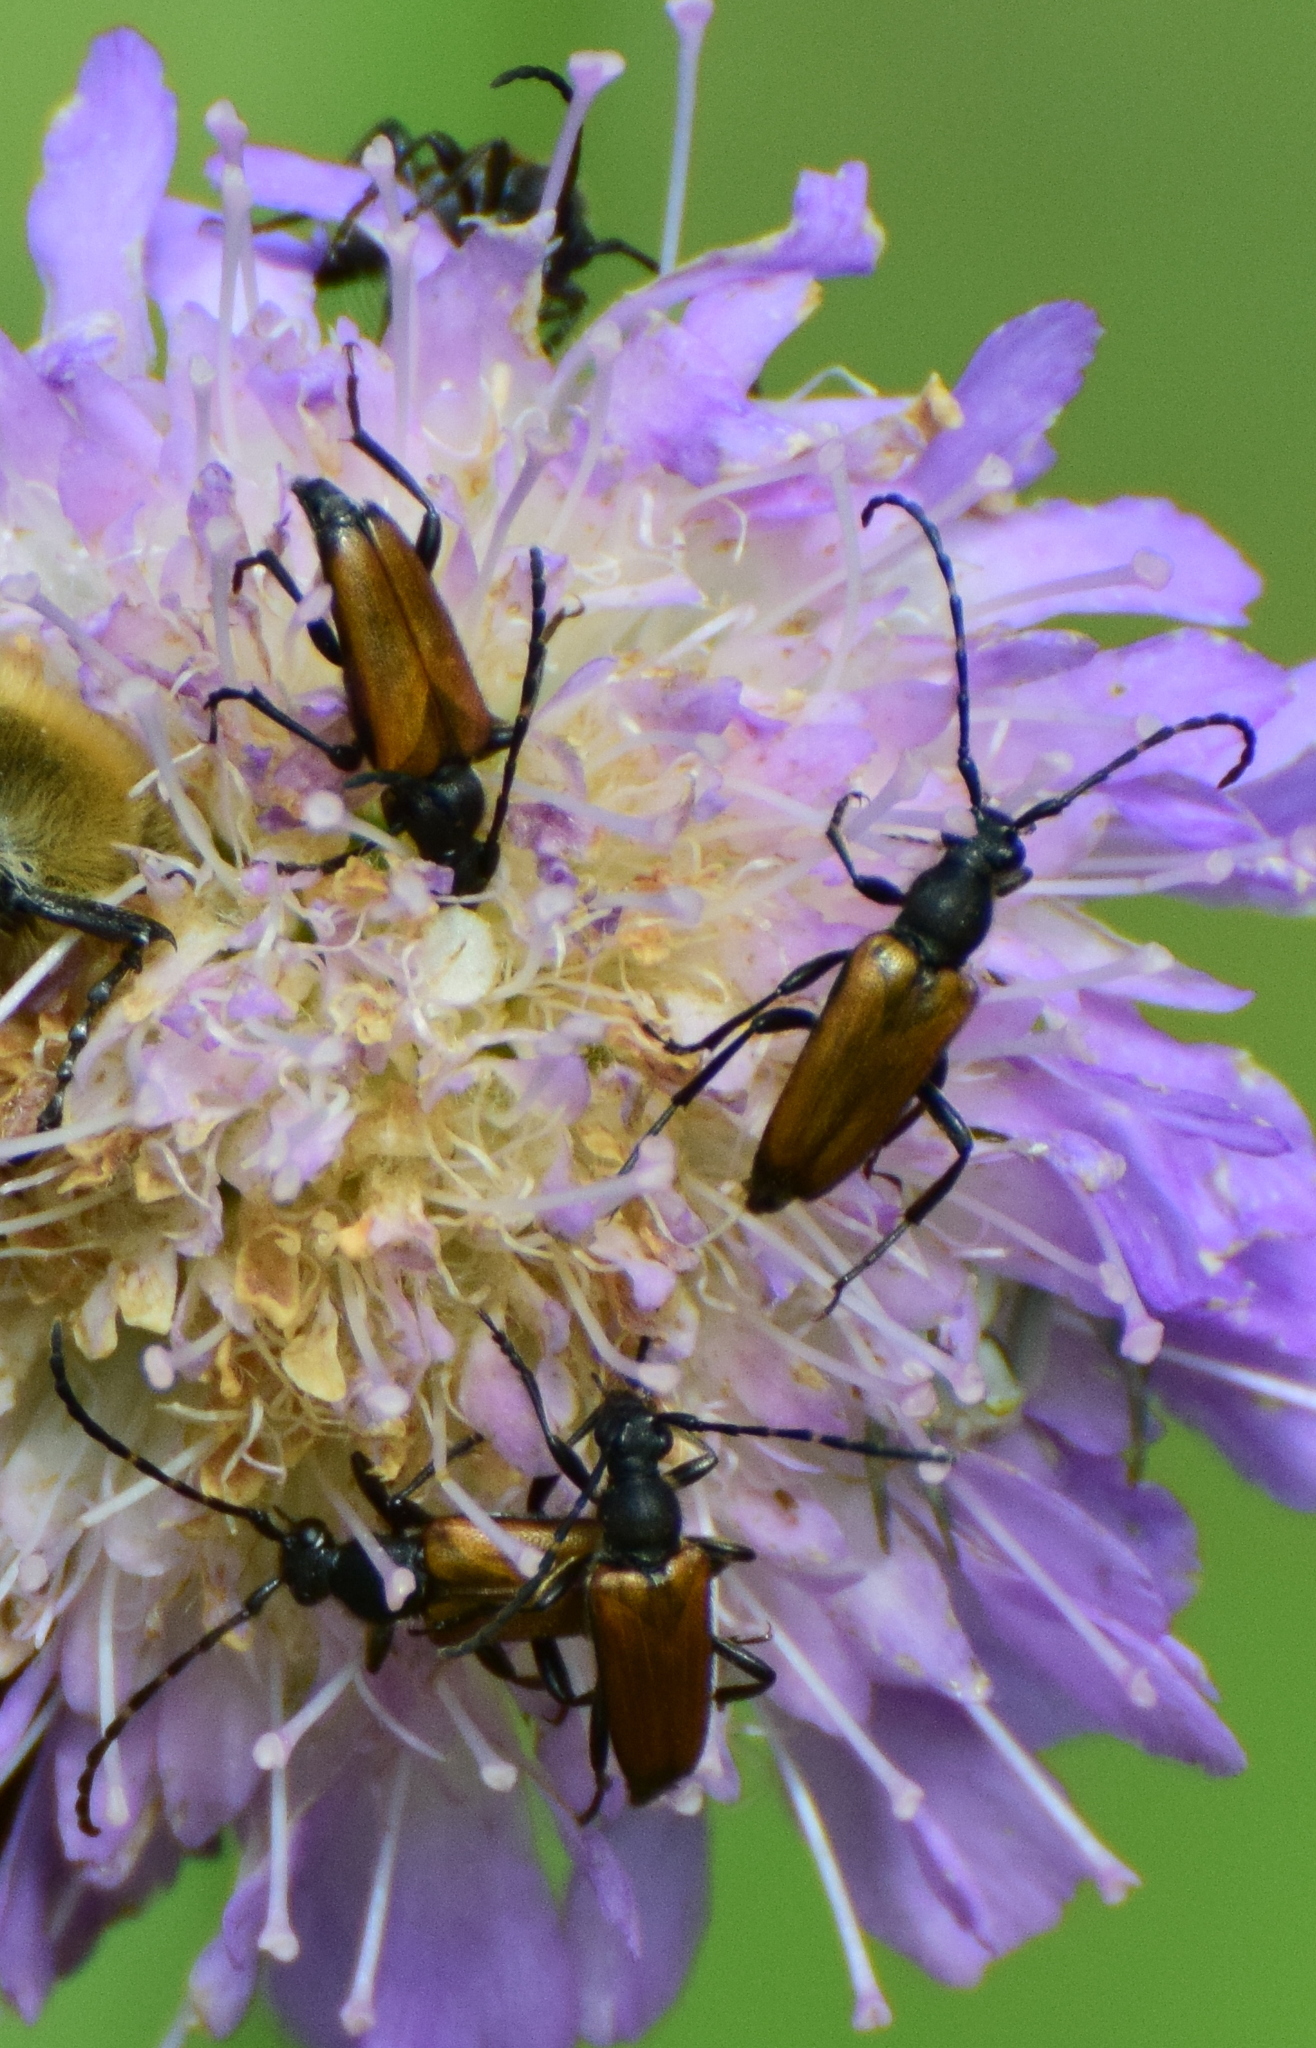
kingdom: Animalia
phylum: Arthropoda
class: Insecta
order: Coleoptera
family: Cerambycidae
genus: Paracorymbia
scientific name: Paracorymbia maculicornis
